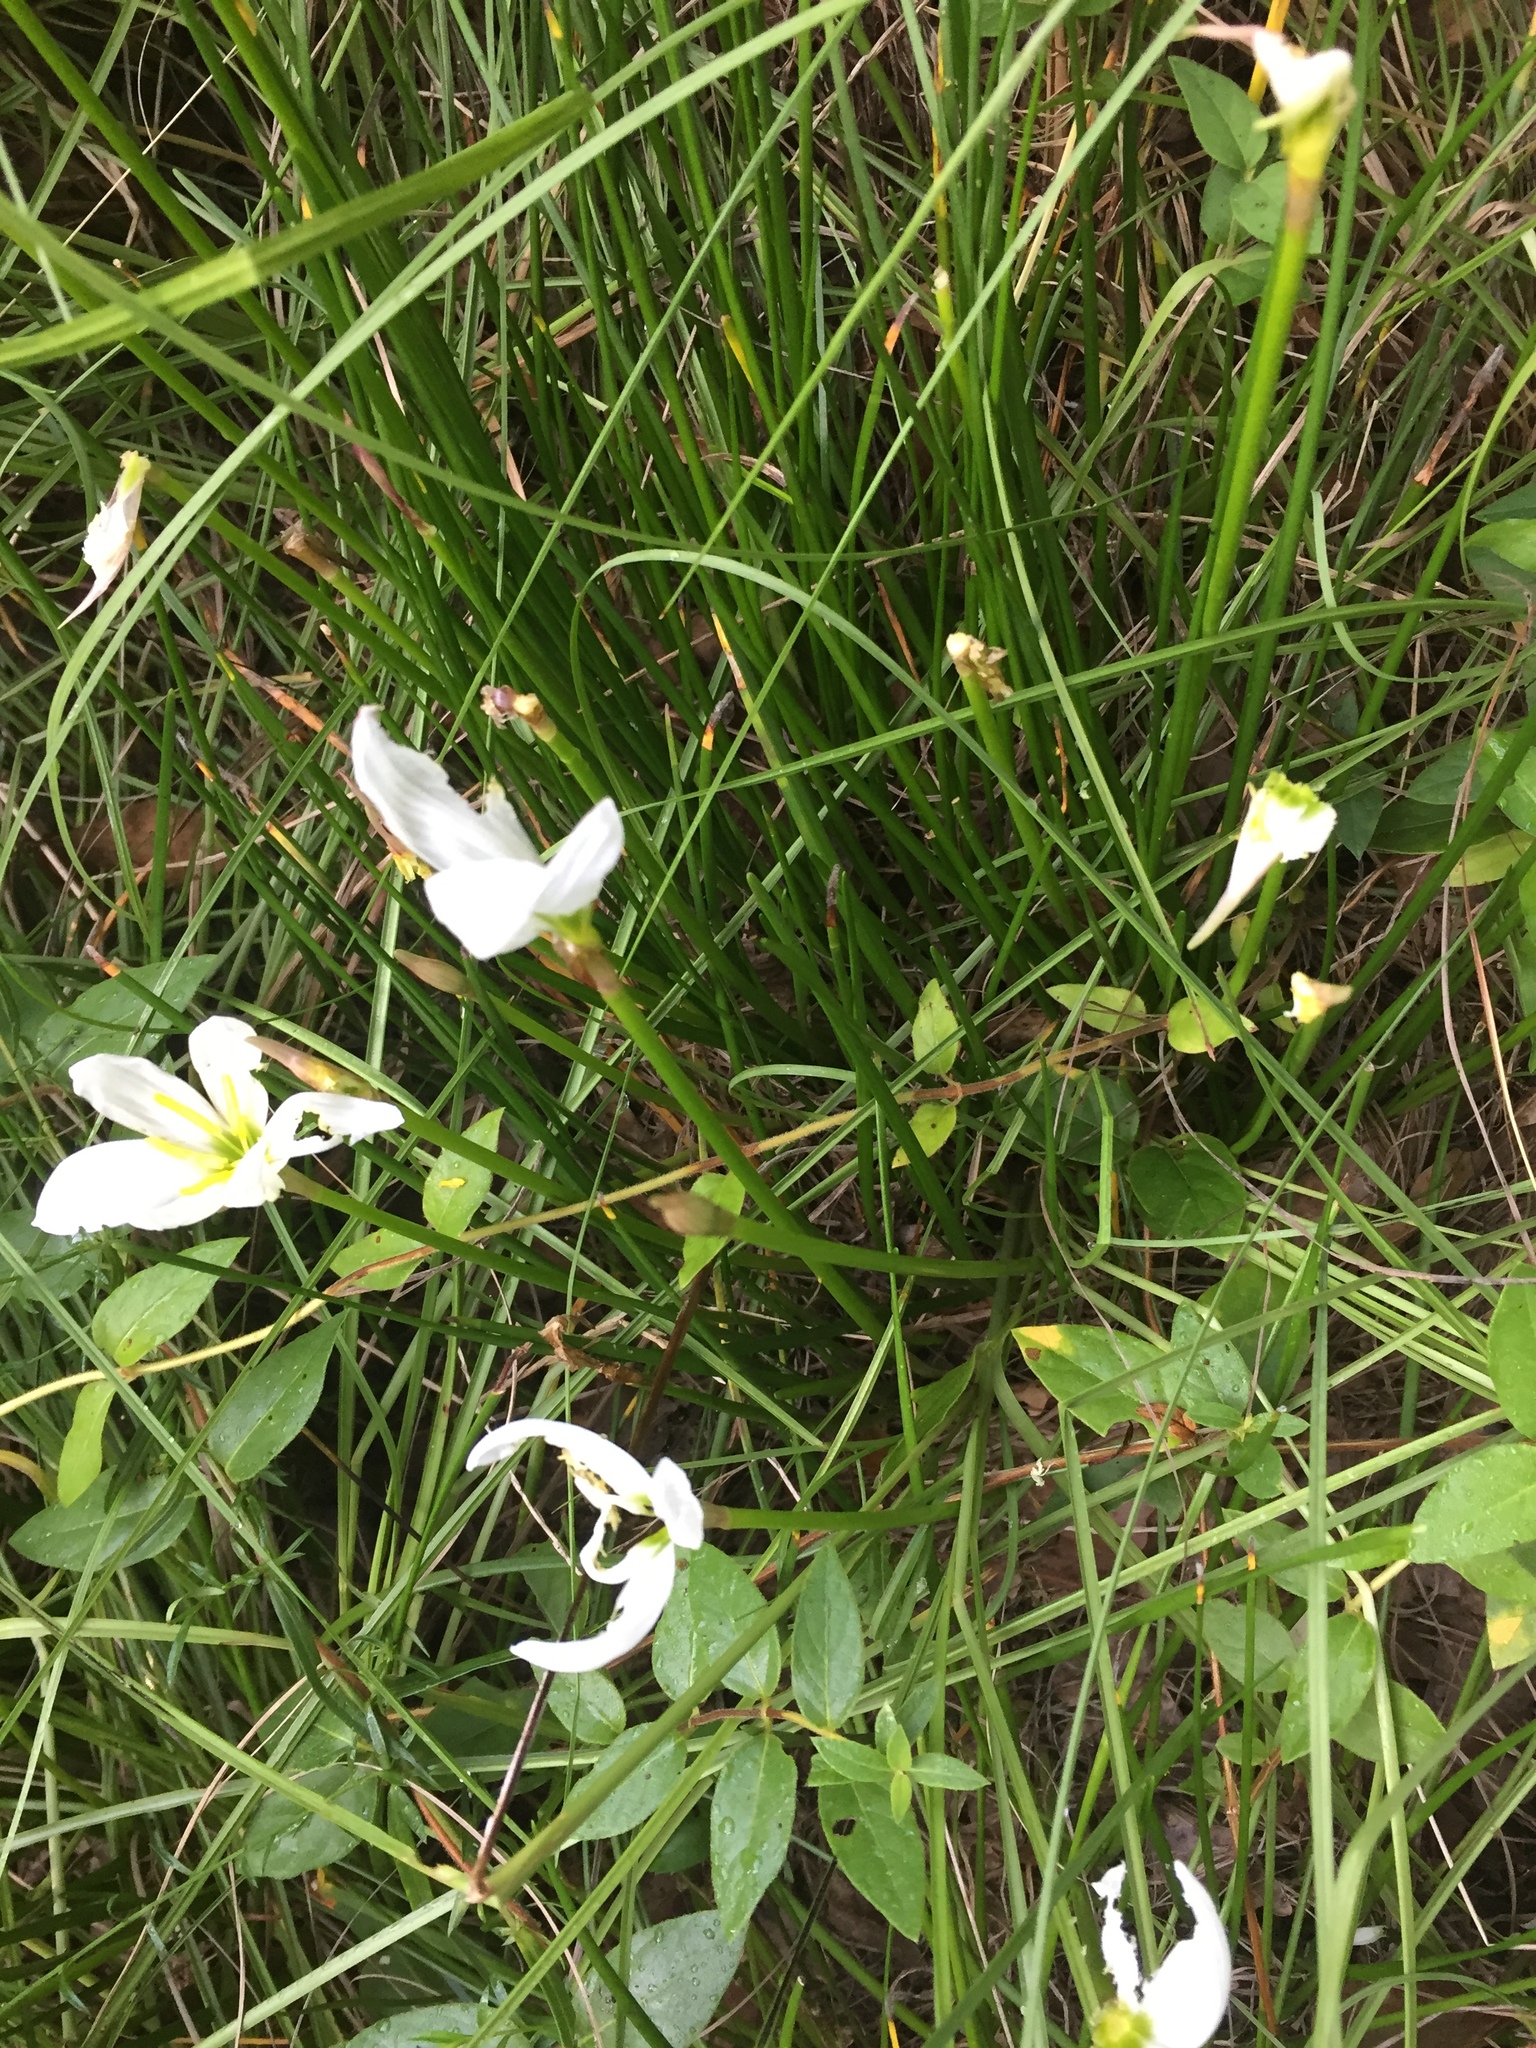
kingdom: Plantae
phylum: Tracheophyta
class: Liliopsida
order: Asparagales
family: Amaryllidaceae
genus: Zephyranthes
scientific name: Zephyranthes candida
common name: Autumn zephyrlily
